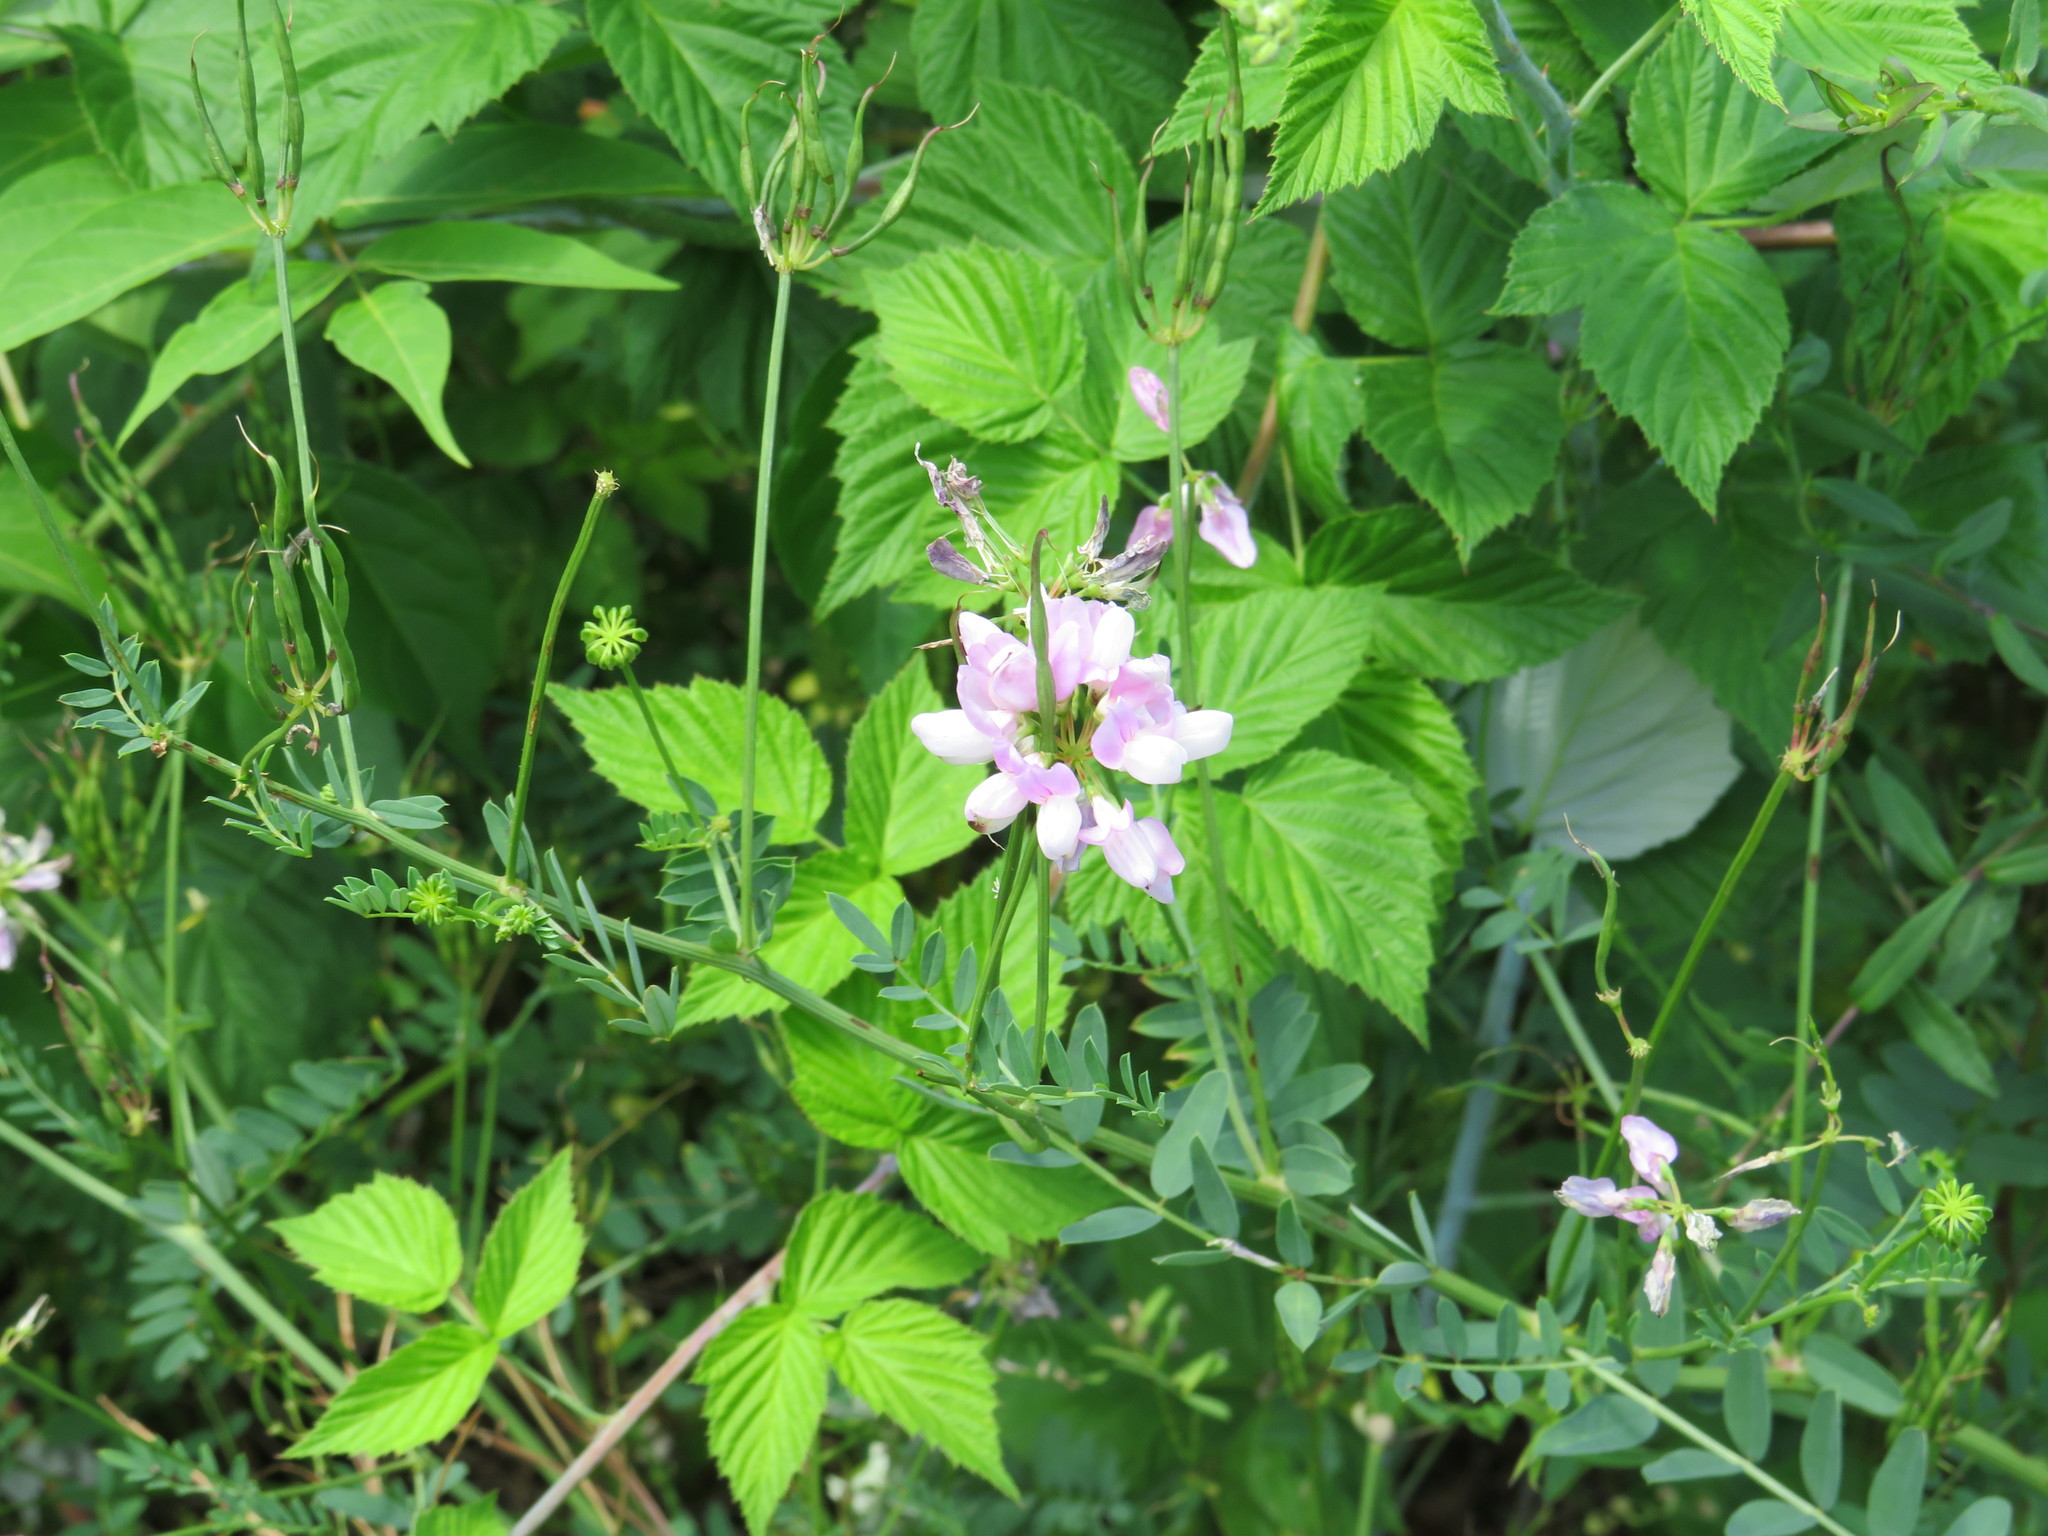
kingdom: Plantae
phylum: Tracheophyta
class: Magnoliopsida
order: Fabales
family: Fabaceae
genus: Coronilla
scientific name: Coronilla varia
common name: Crownvetch
